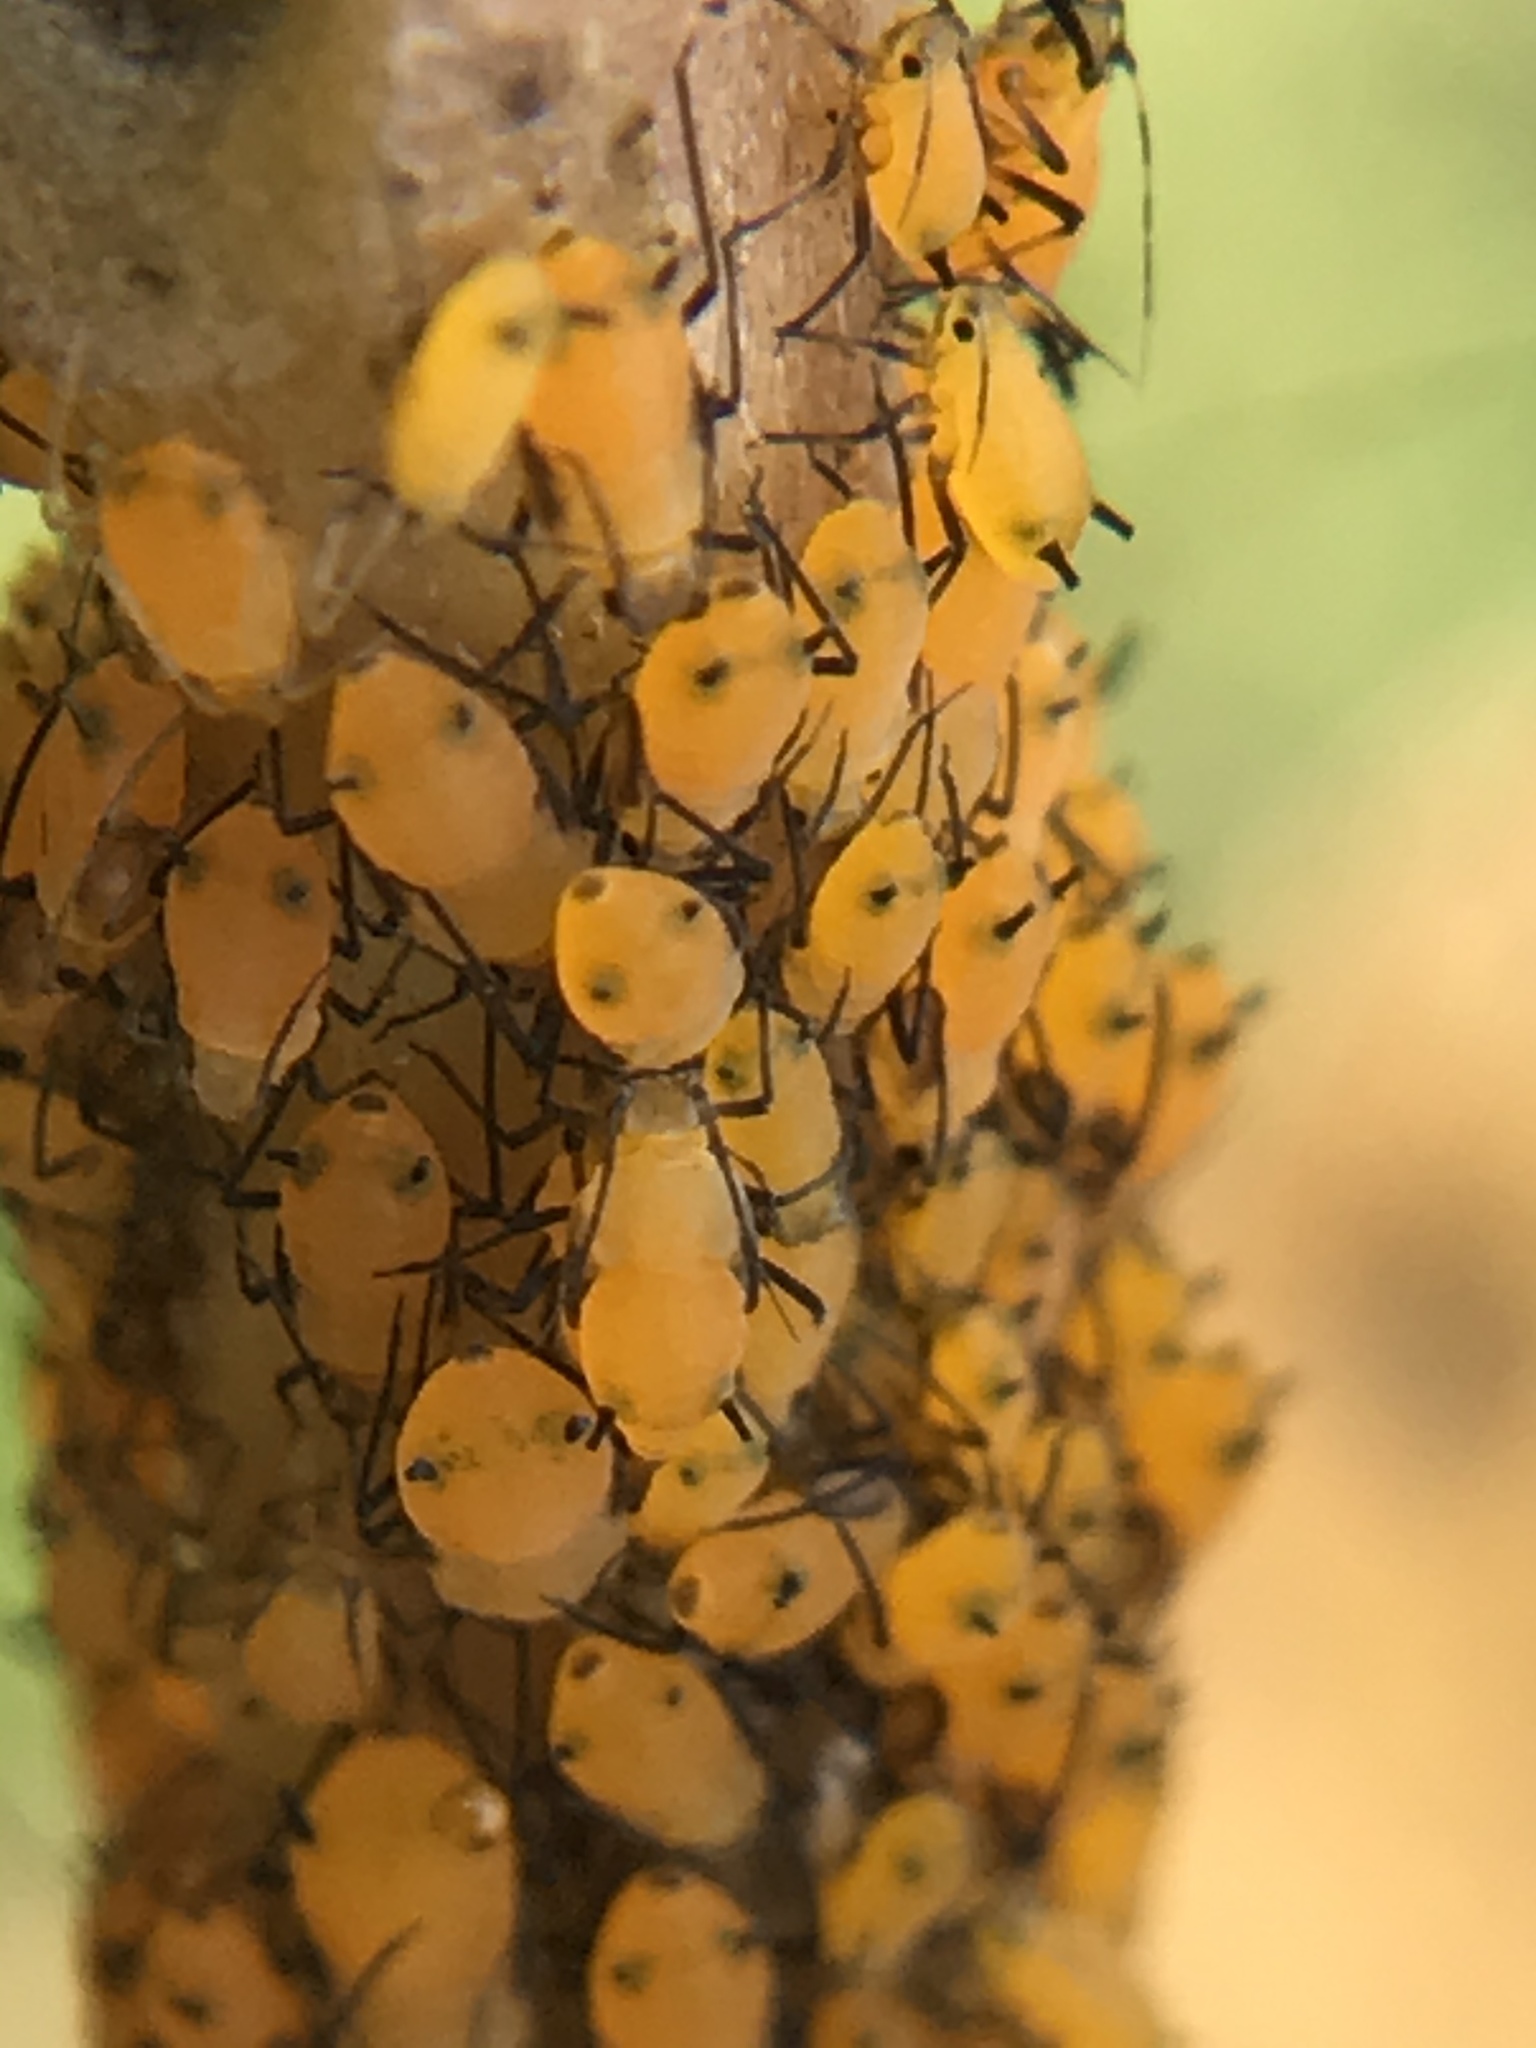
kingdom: Animalia
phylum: Arthropoda
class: Insecta
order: Hemiptera
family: Aphididae
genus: Aphis
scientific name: Aphis nerii
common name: Oleander aphid
